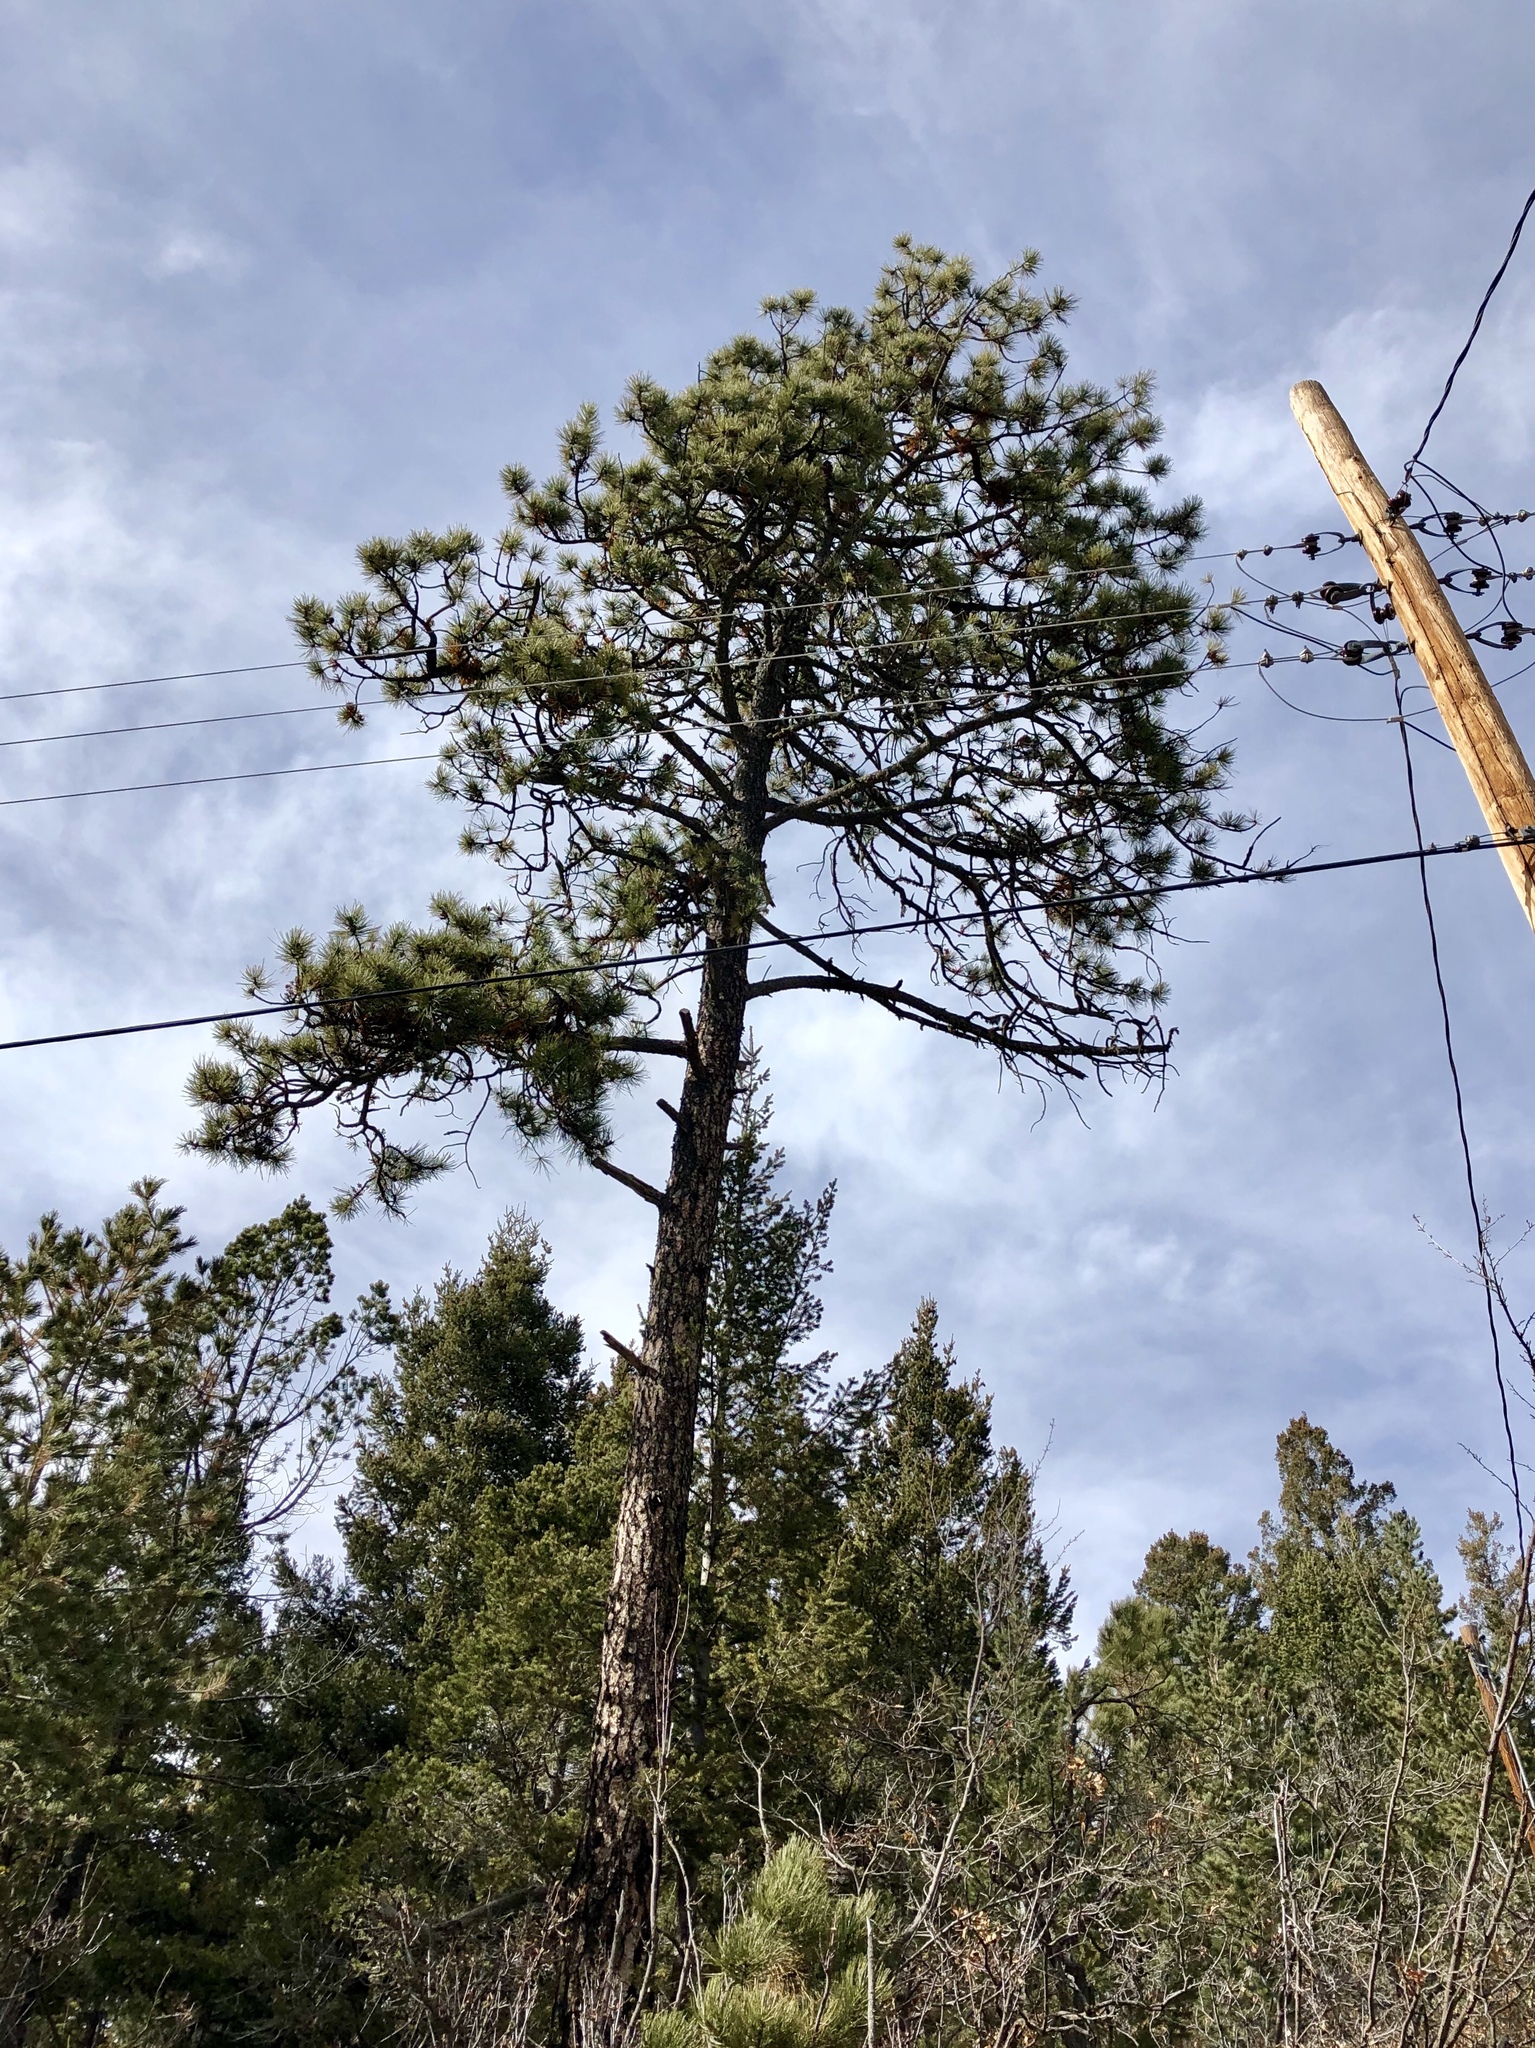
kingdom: Plantae
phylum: Tracheophyta
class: Pinopsida
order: Pinales
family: Pinaceae
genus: Pinus
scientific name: Pinus ponderosa
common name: Western yellow-pine
